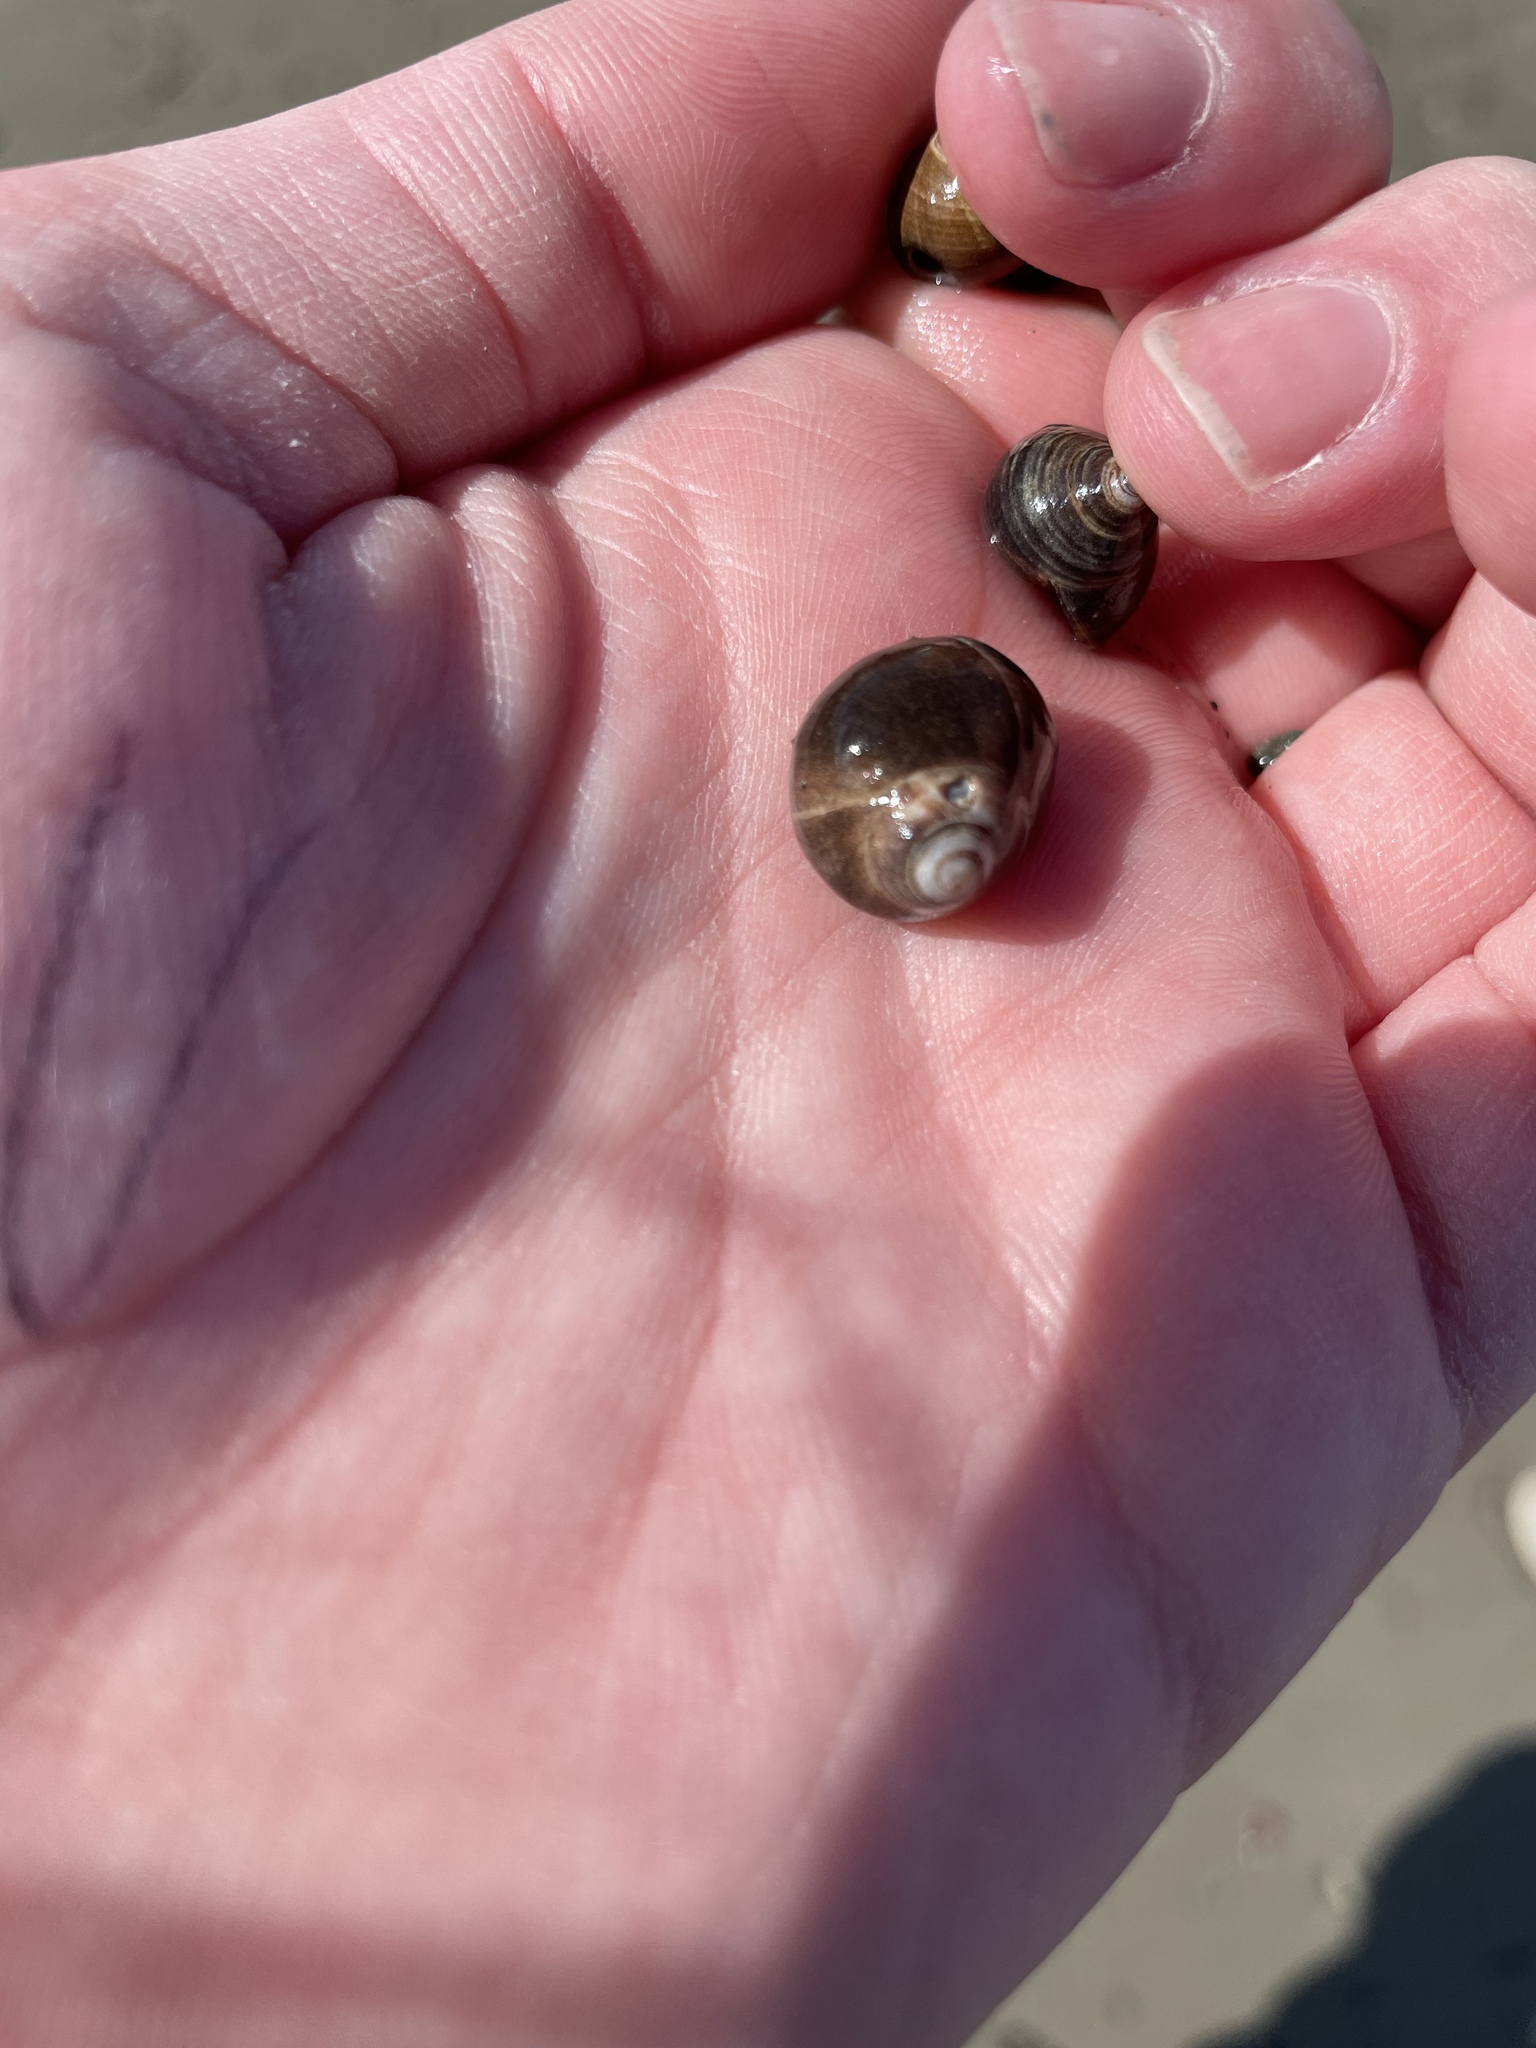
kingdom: Animalia
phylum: Mollusca
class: Gastropoda
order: Littorinimorpha
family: Littorinidae
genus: Littorina
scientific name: Littorina littorea
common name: Common periwinkle
